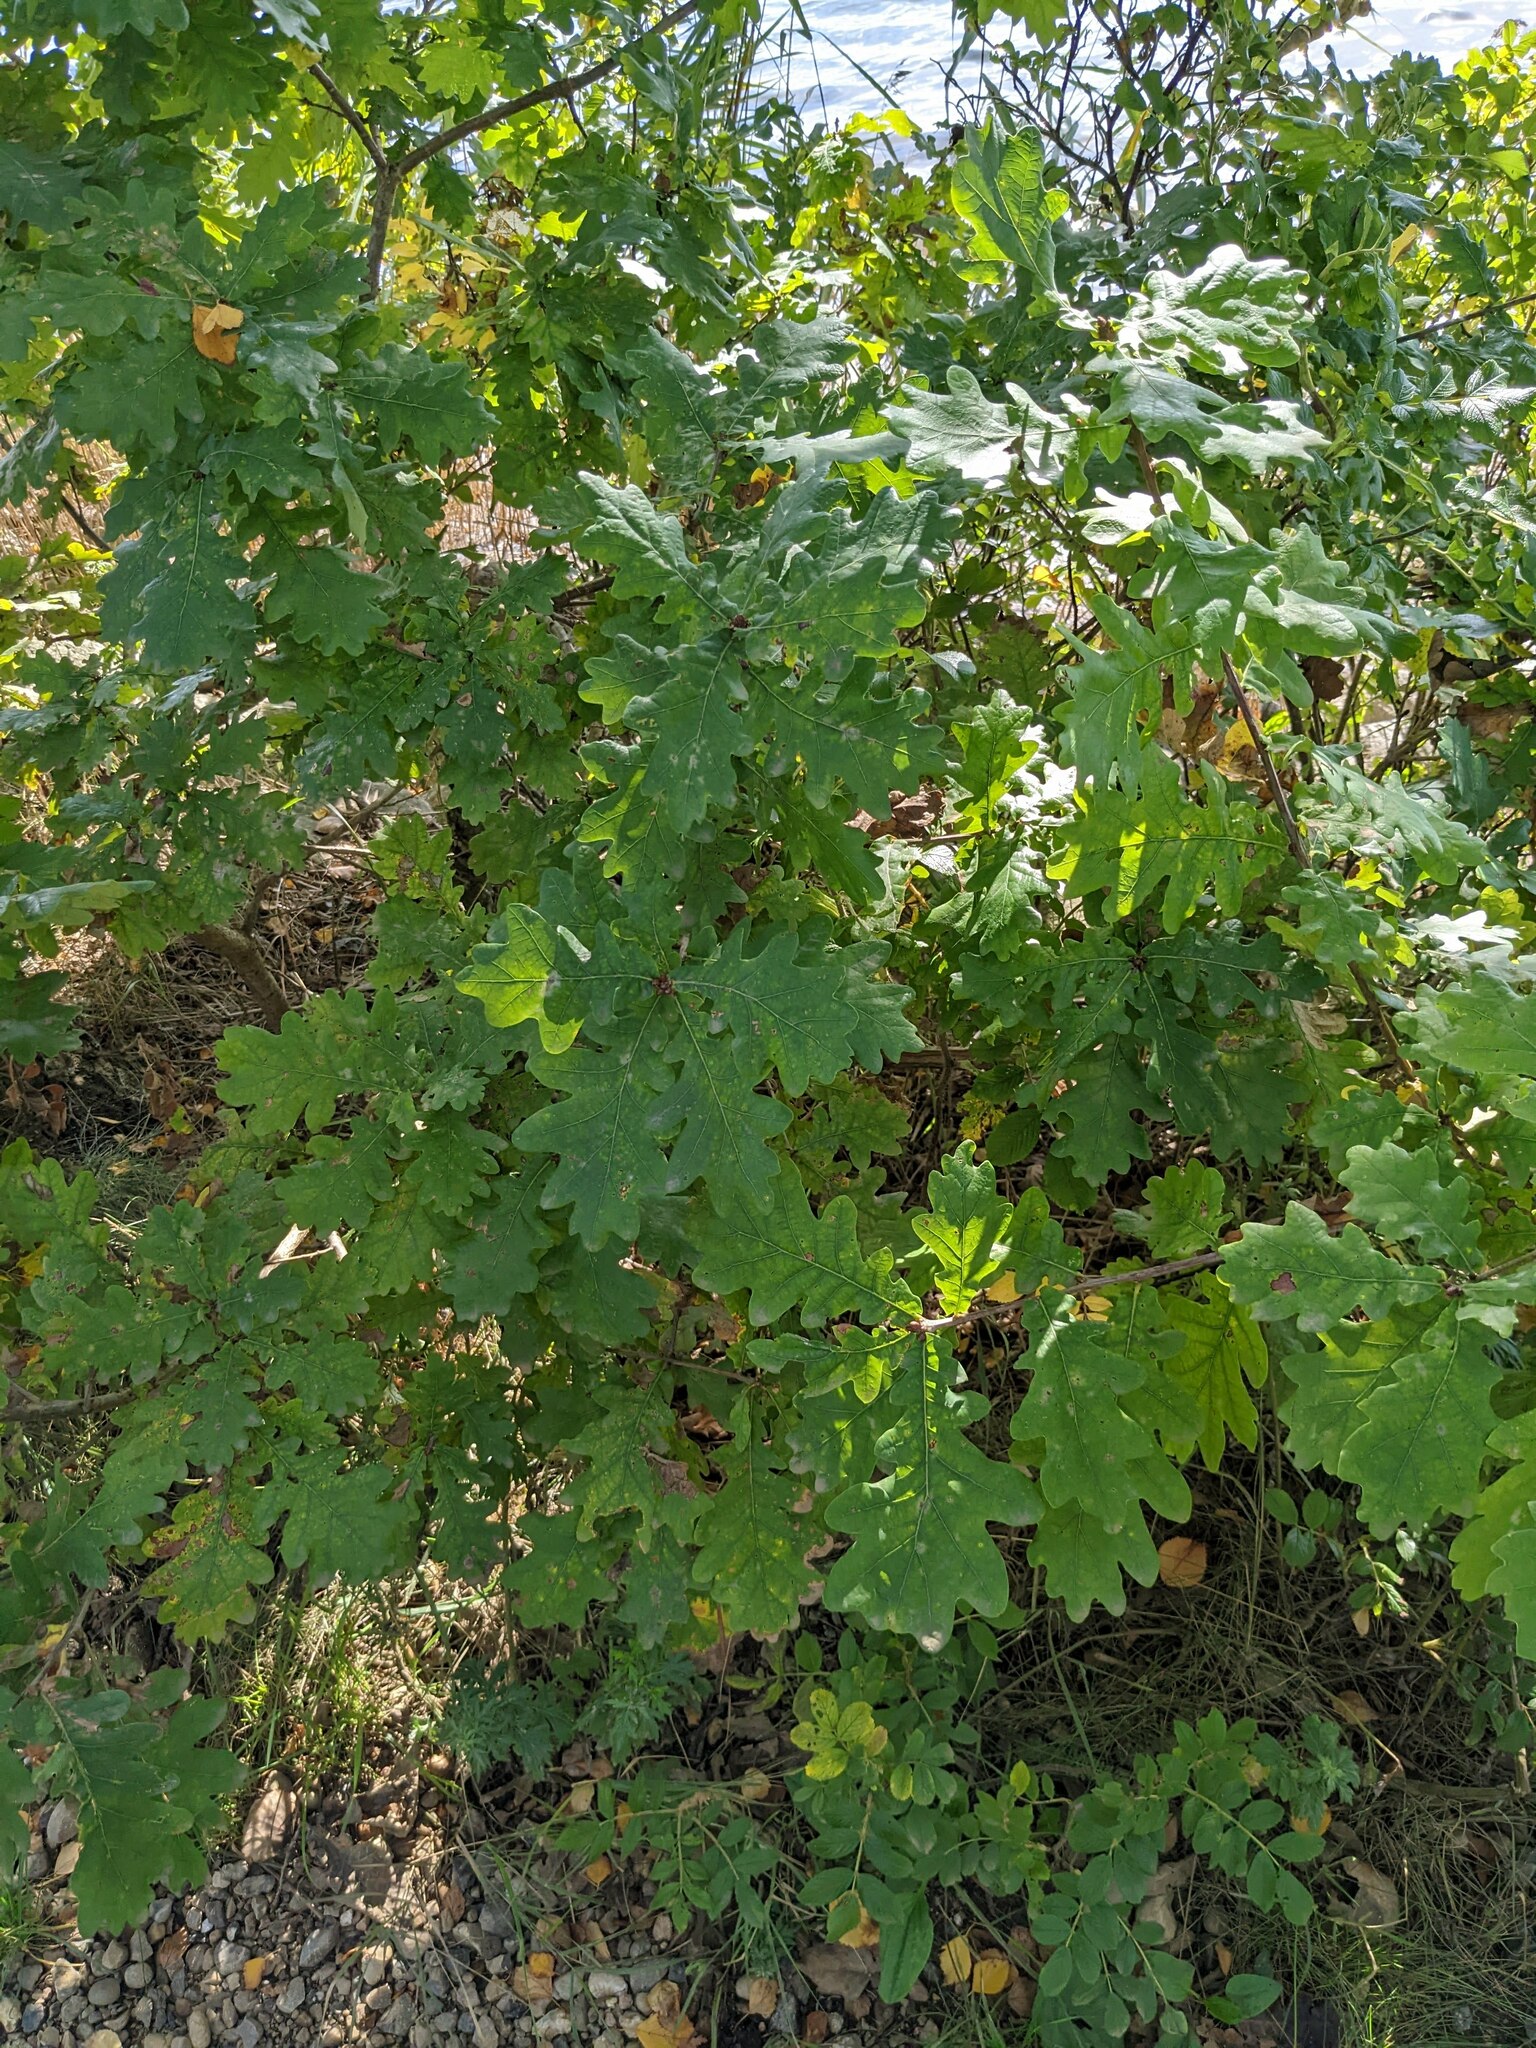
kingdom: Plantae
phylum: Tracheophyta
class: Magnoliopsida
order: Fagales
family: Fagaceae
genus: Quercus
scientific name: Quercus robur
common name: Pedunculate oak
